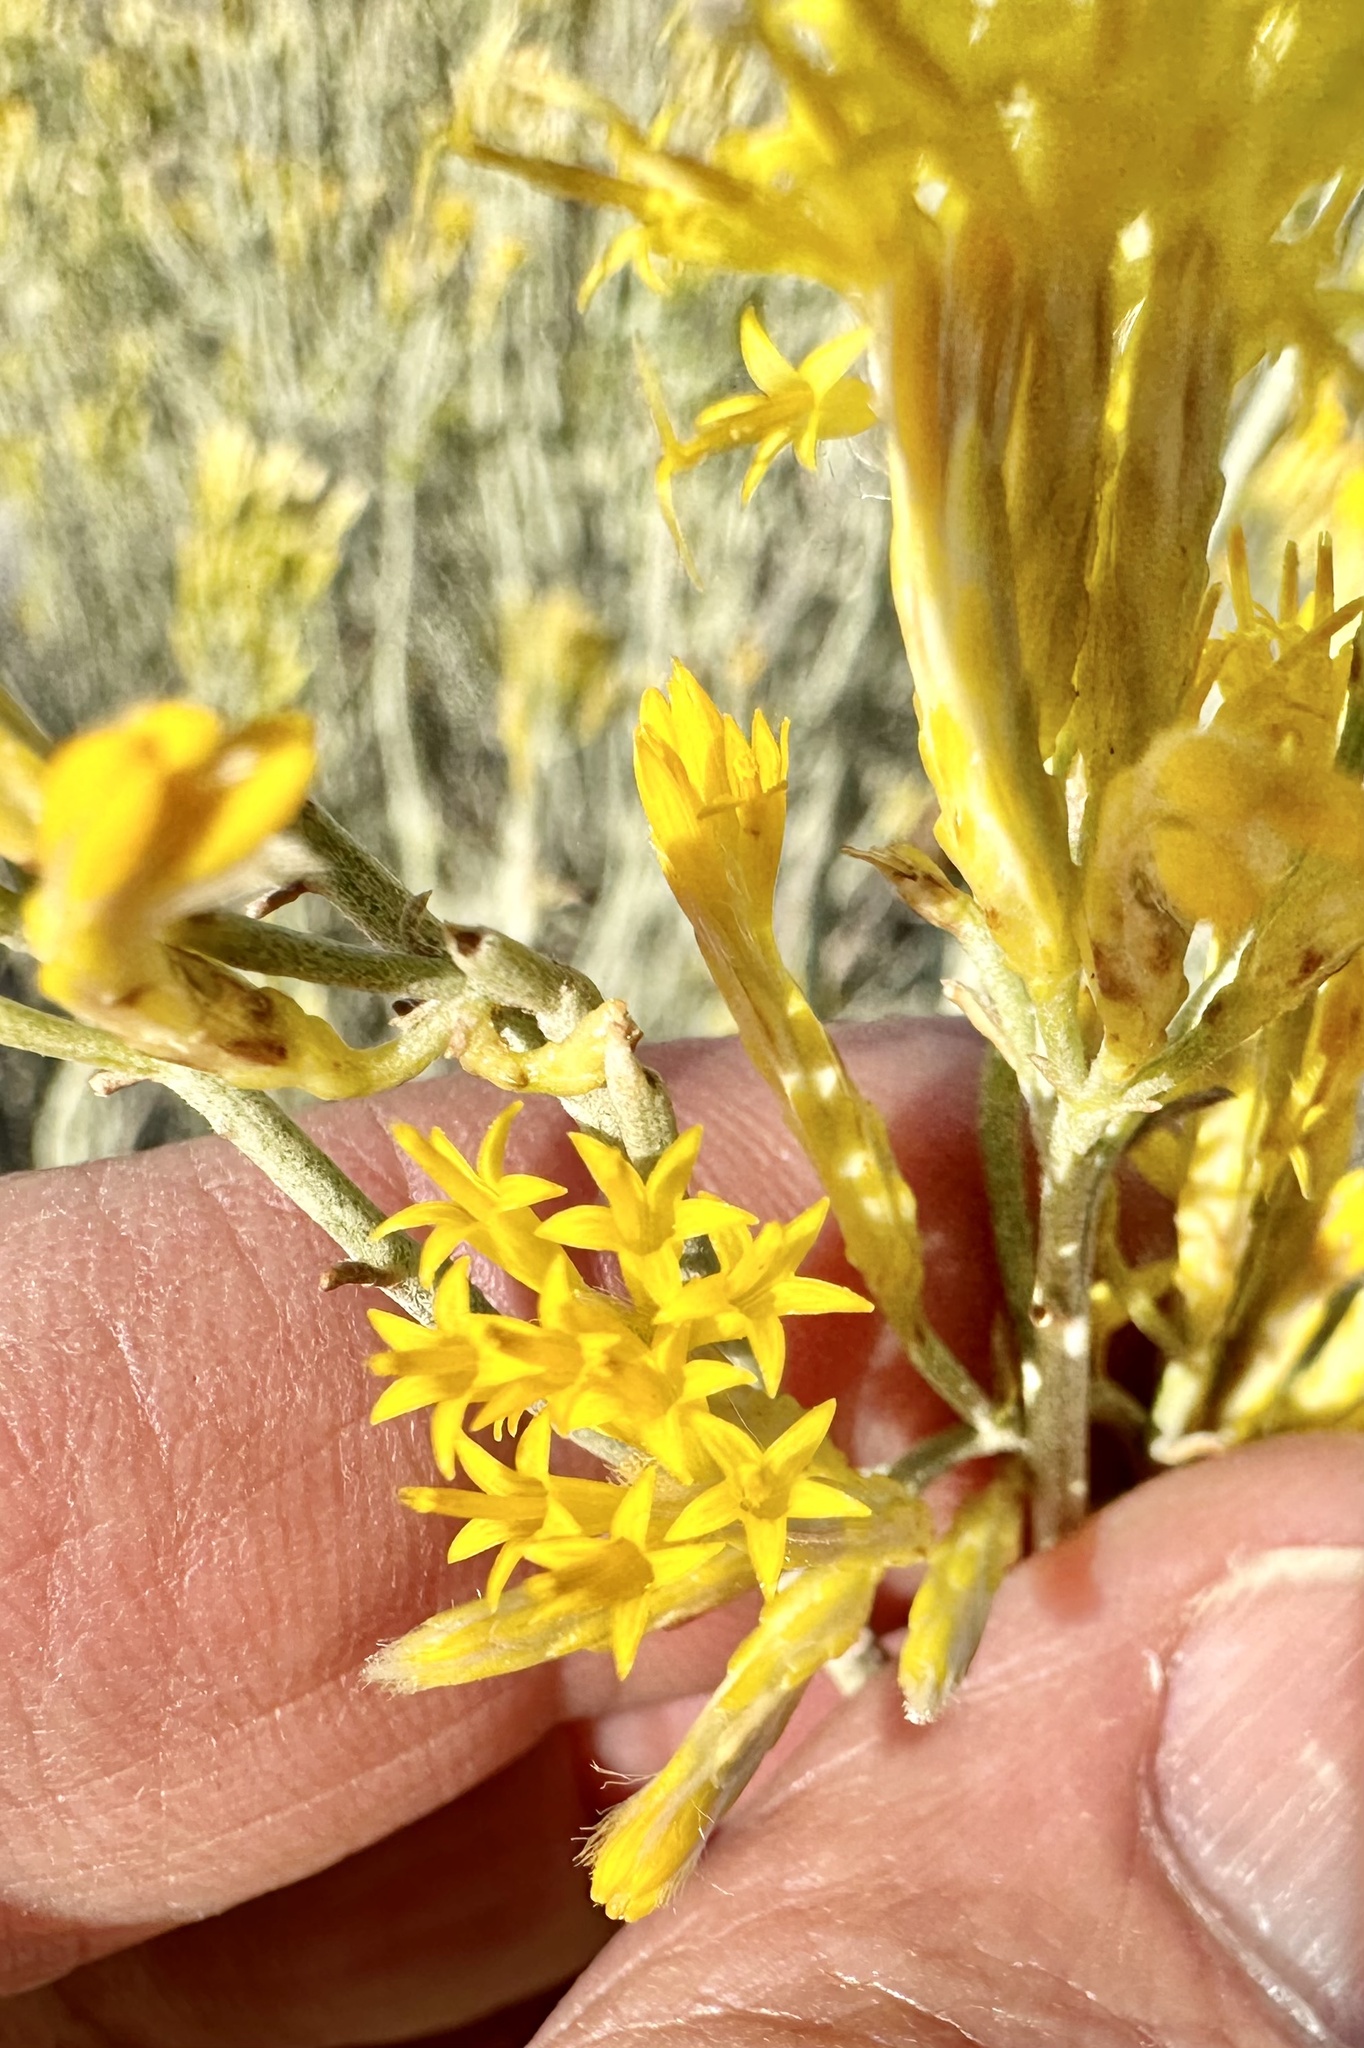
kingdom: Plantae
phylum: Tracheophyta
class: Magnoliopsida
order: Asterales
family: Asteraceae
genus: Ericameria
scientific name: Ericameria nauseosa
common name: Rubber rabbitbrush
